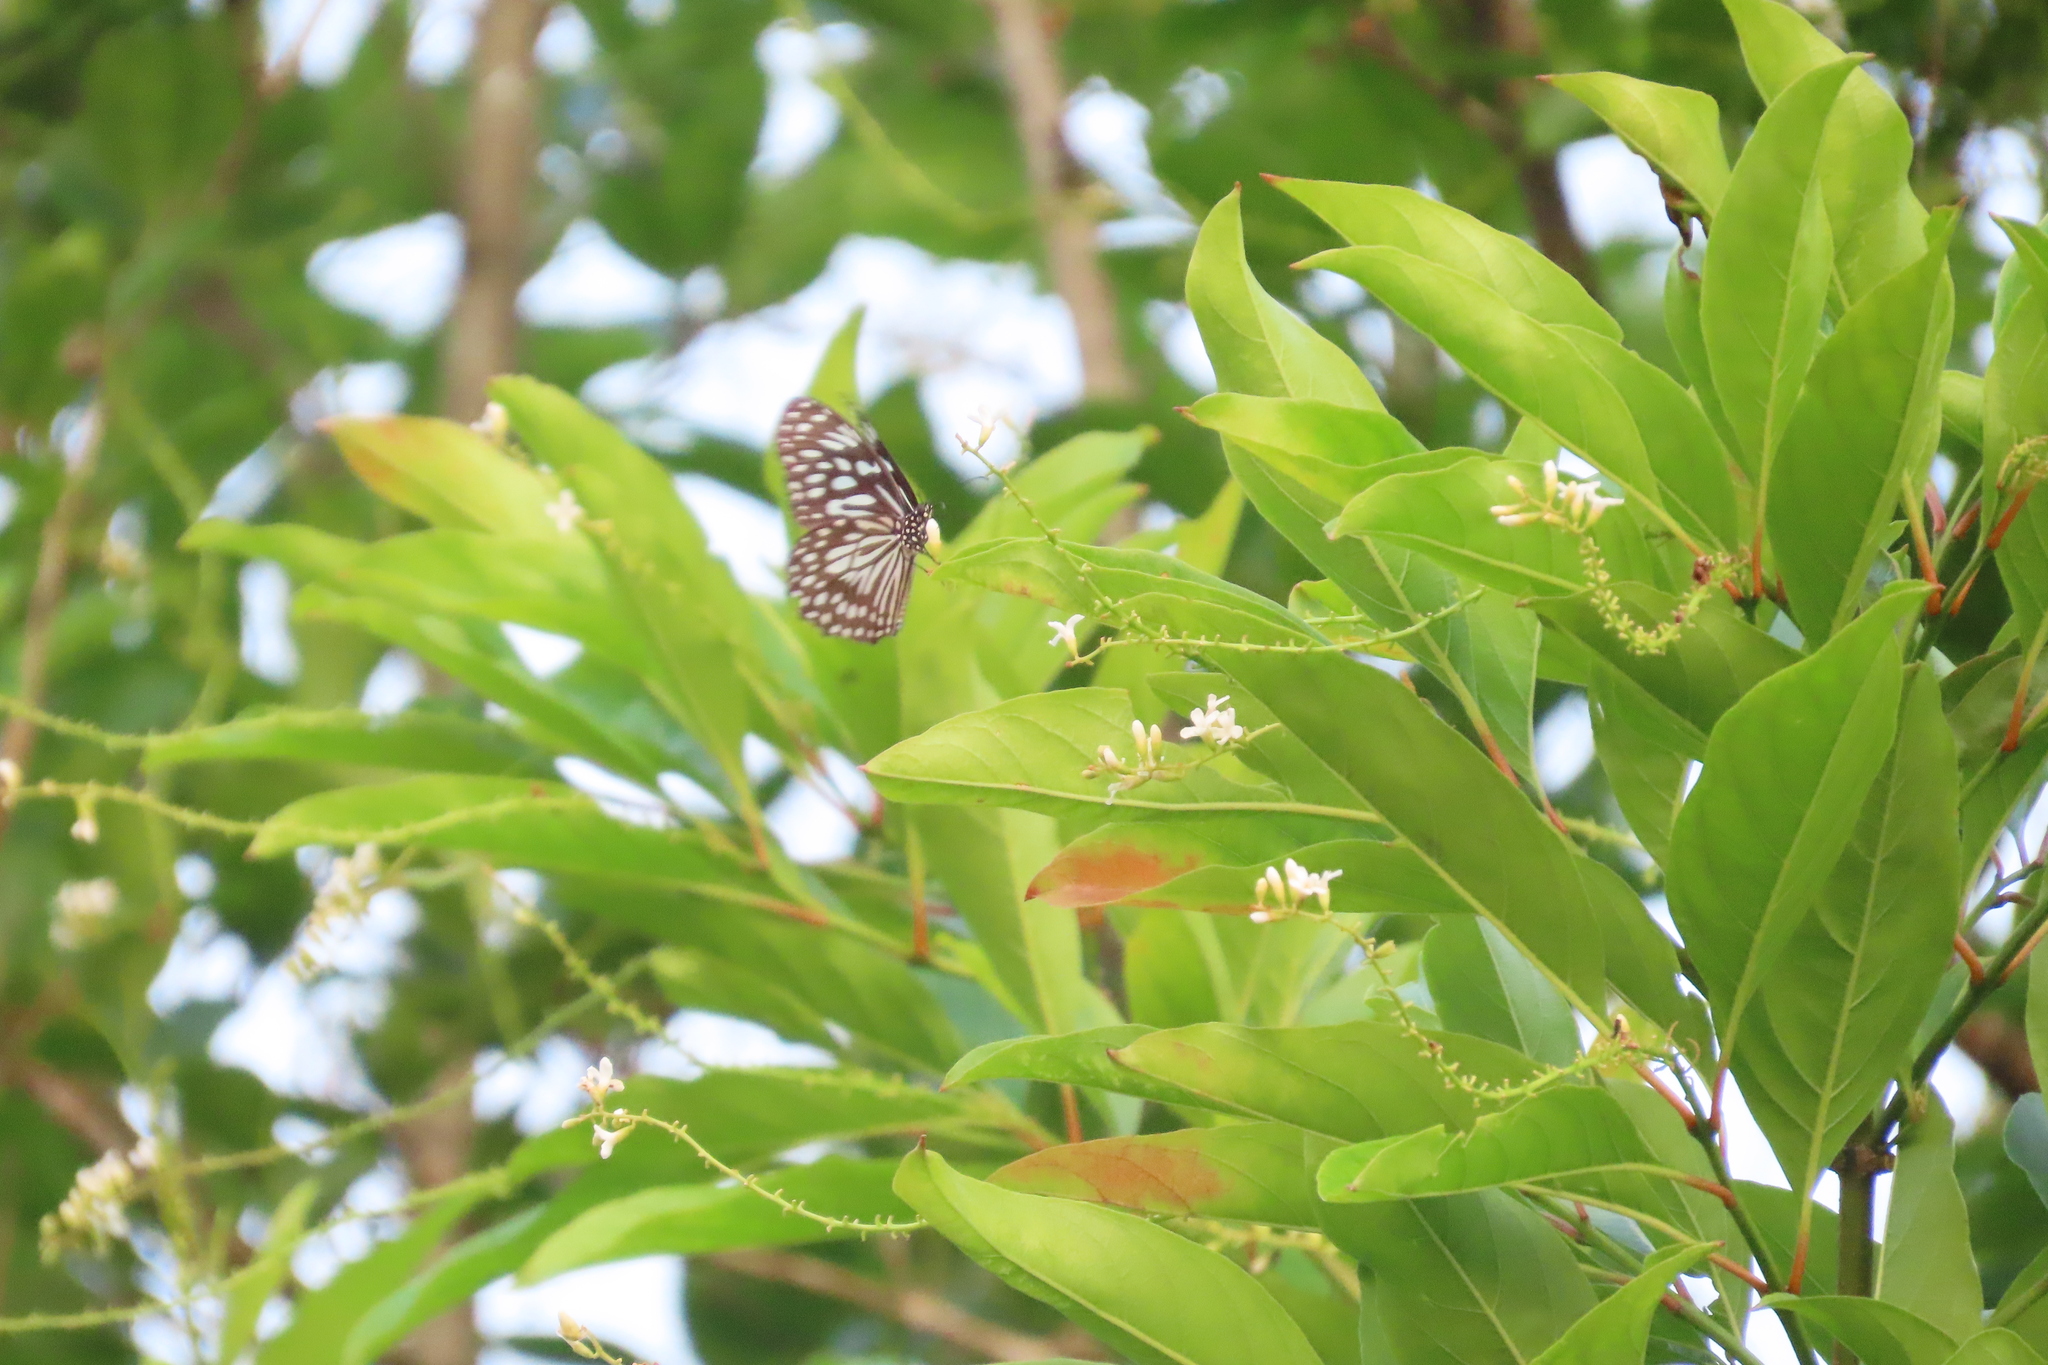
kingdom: Animalia
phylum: Arthropoda
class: Insecta
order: Lepidoptera
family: Nymphalidae
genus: Tirumala
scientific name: Tirumala septentrionis
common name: Dark blue tiger butterfly
